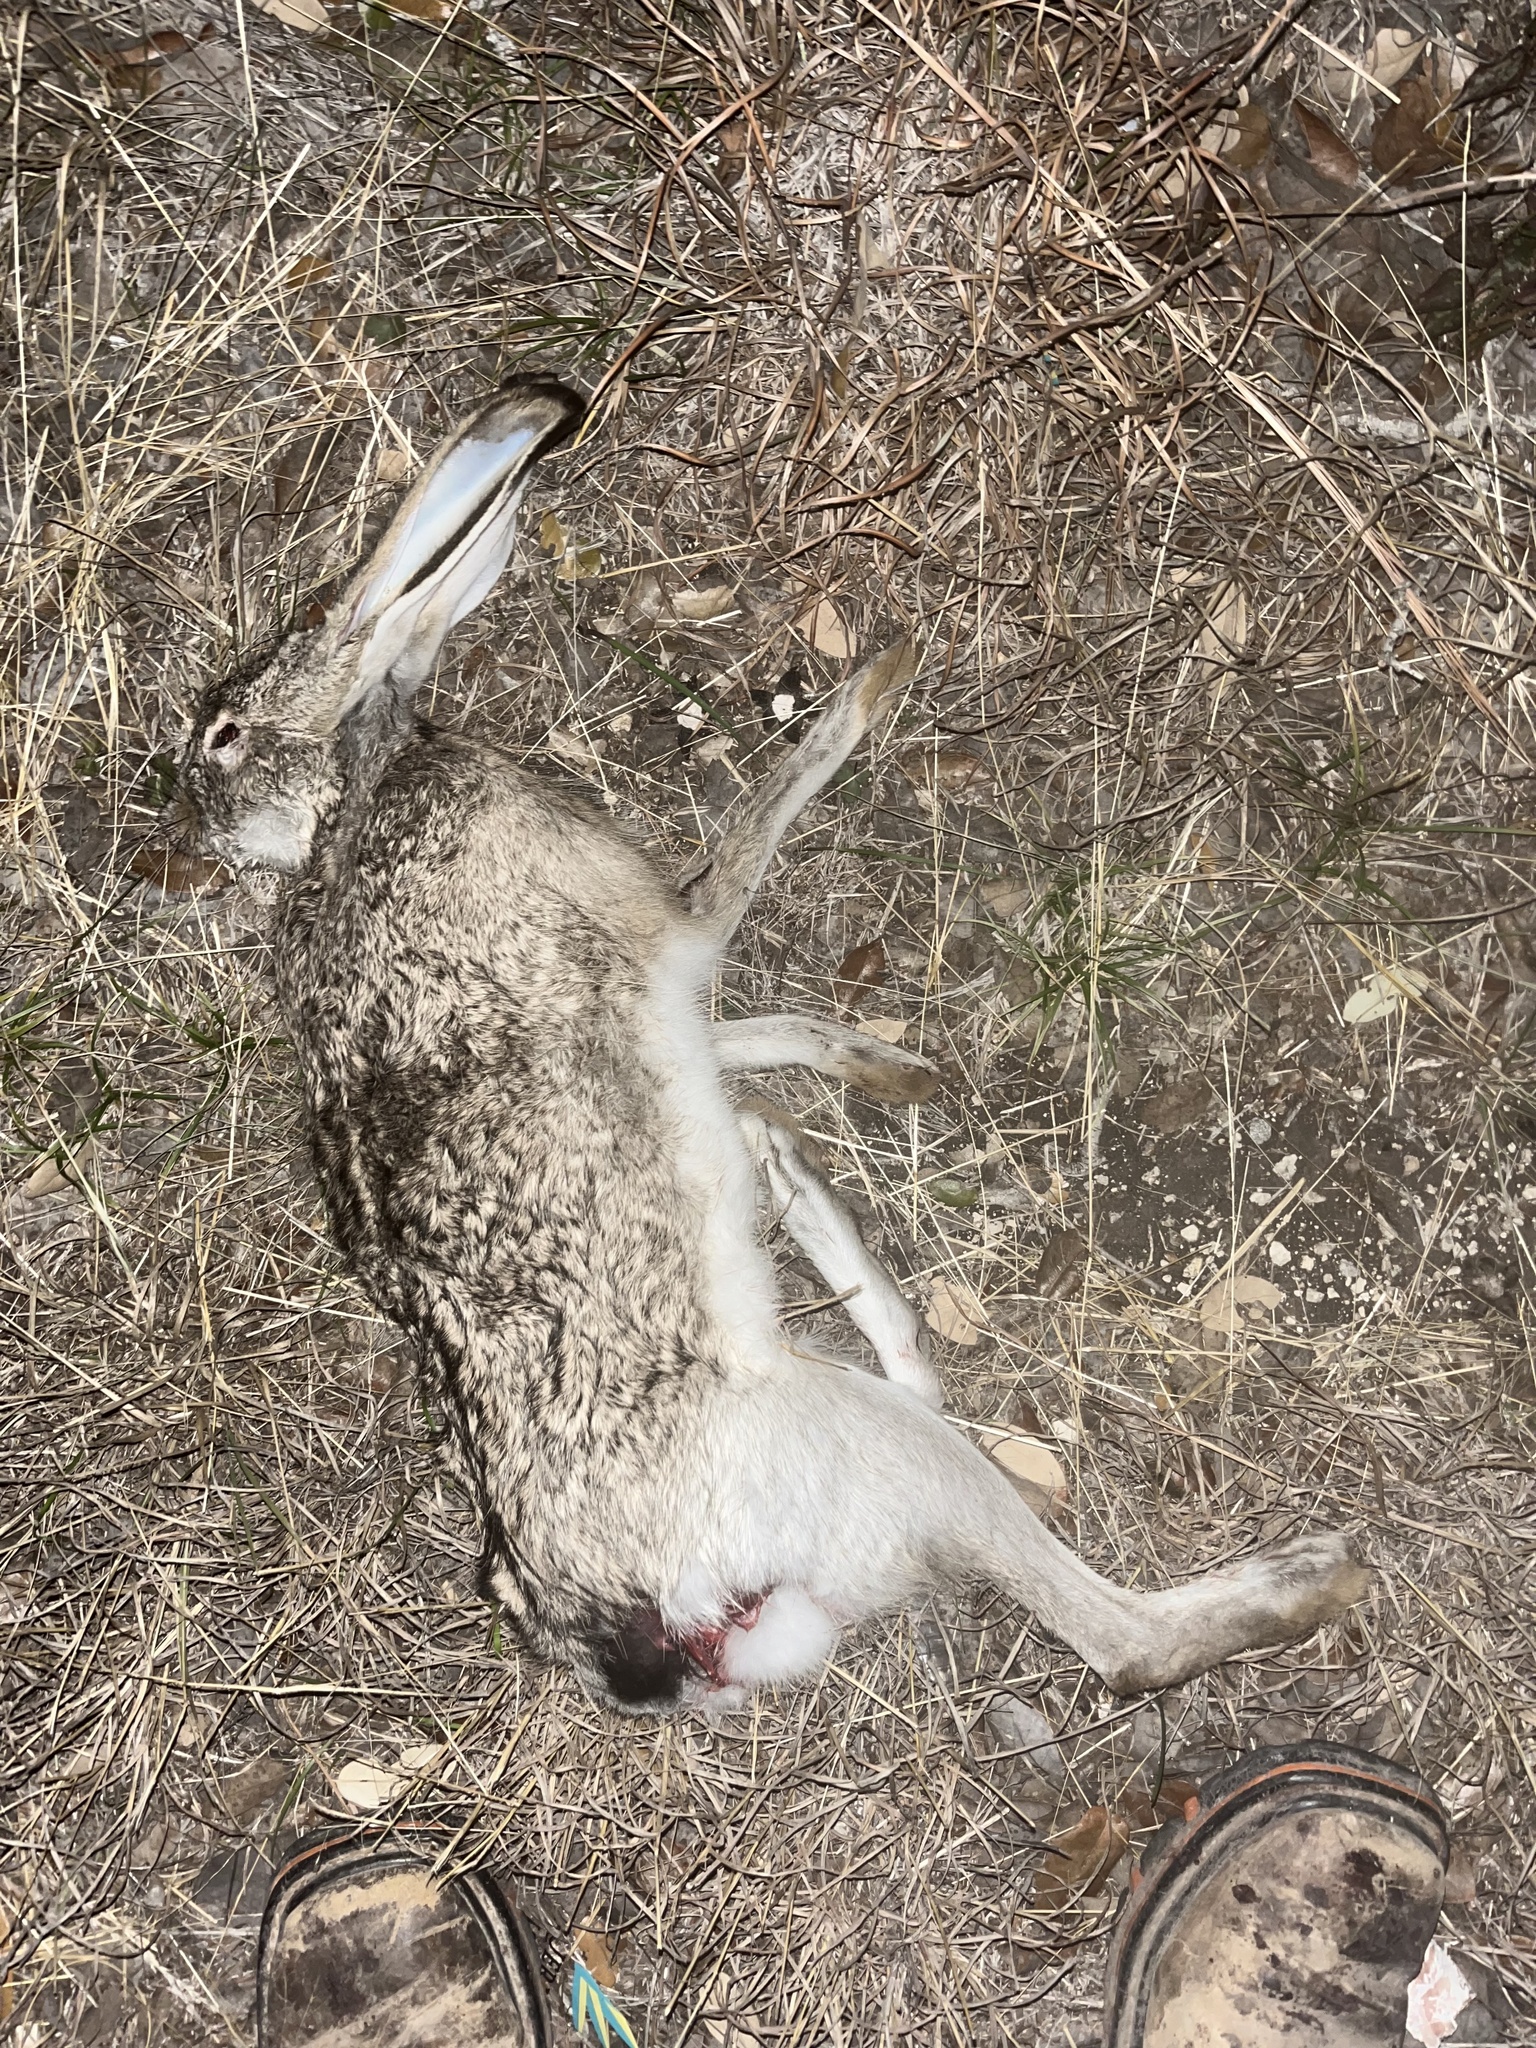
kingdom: Animalia
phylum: Chordata
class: Mammalia
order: Lagomorpha
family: Leporidae
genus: Lepus
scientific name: Lepus californicus
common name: Black-tailed jackrabbit
